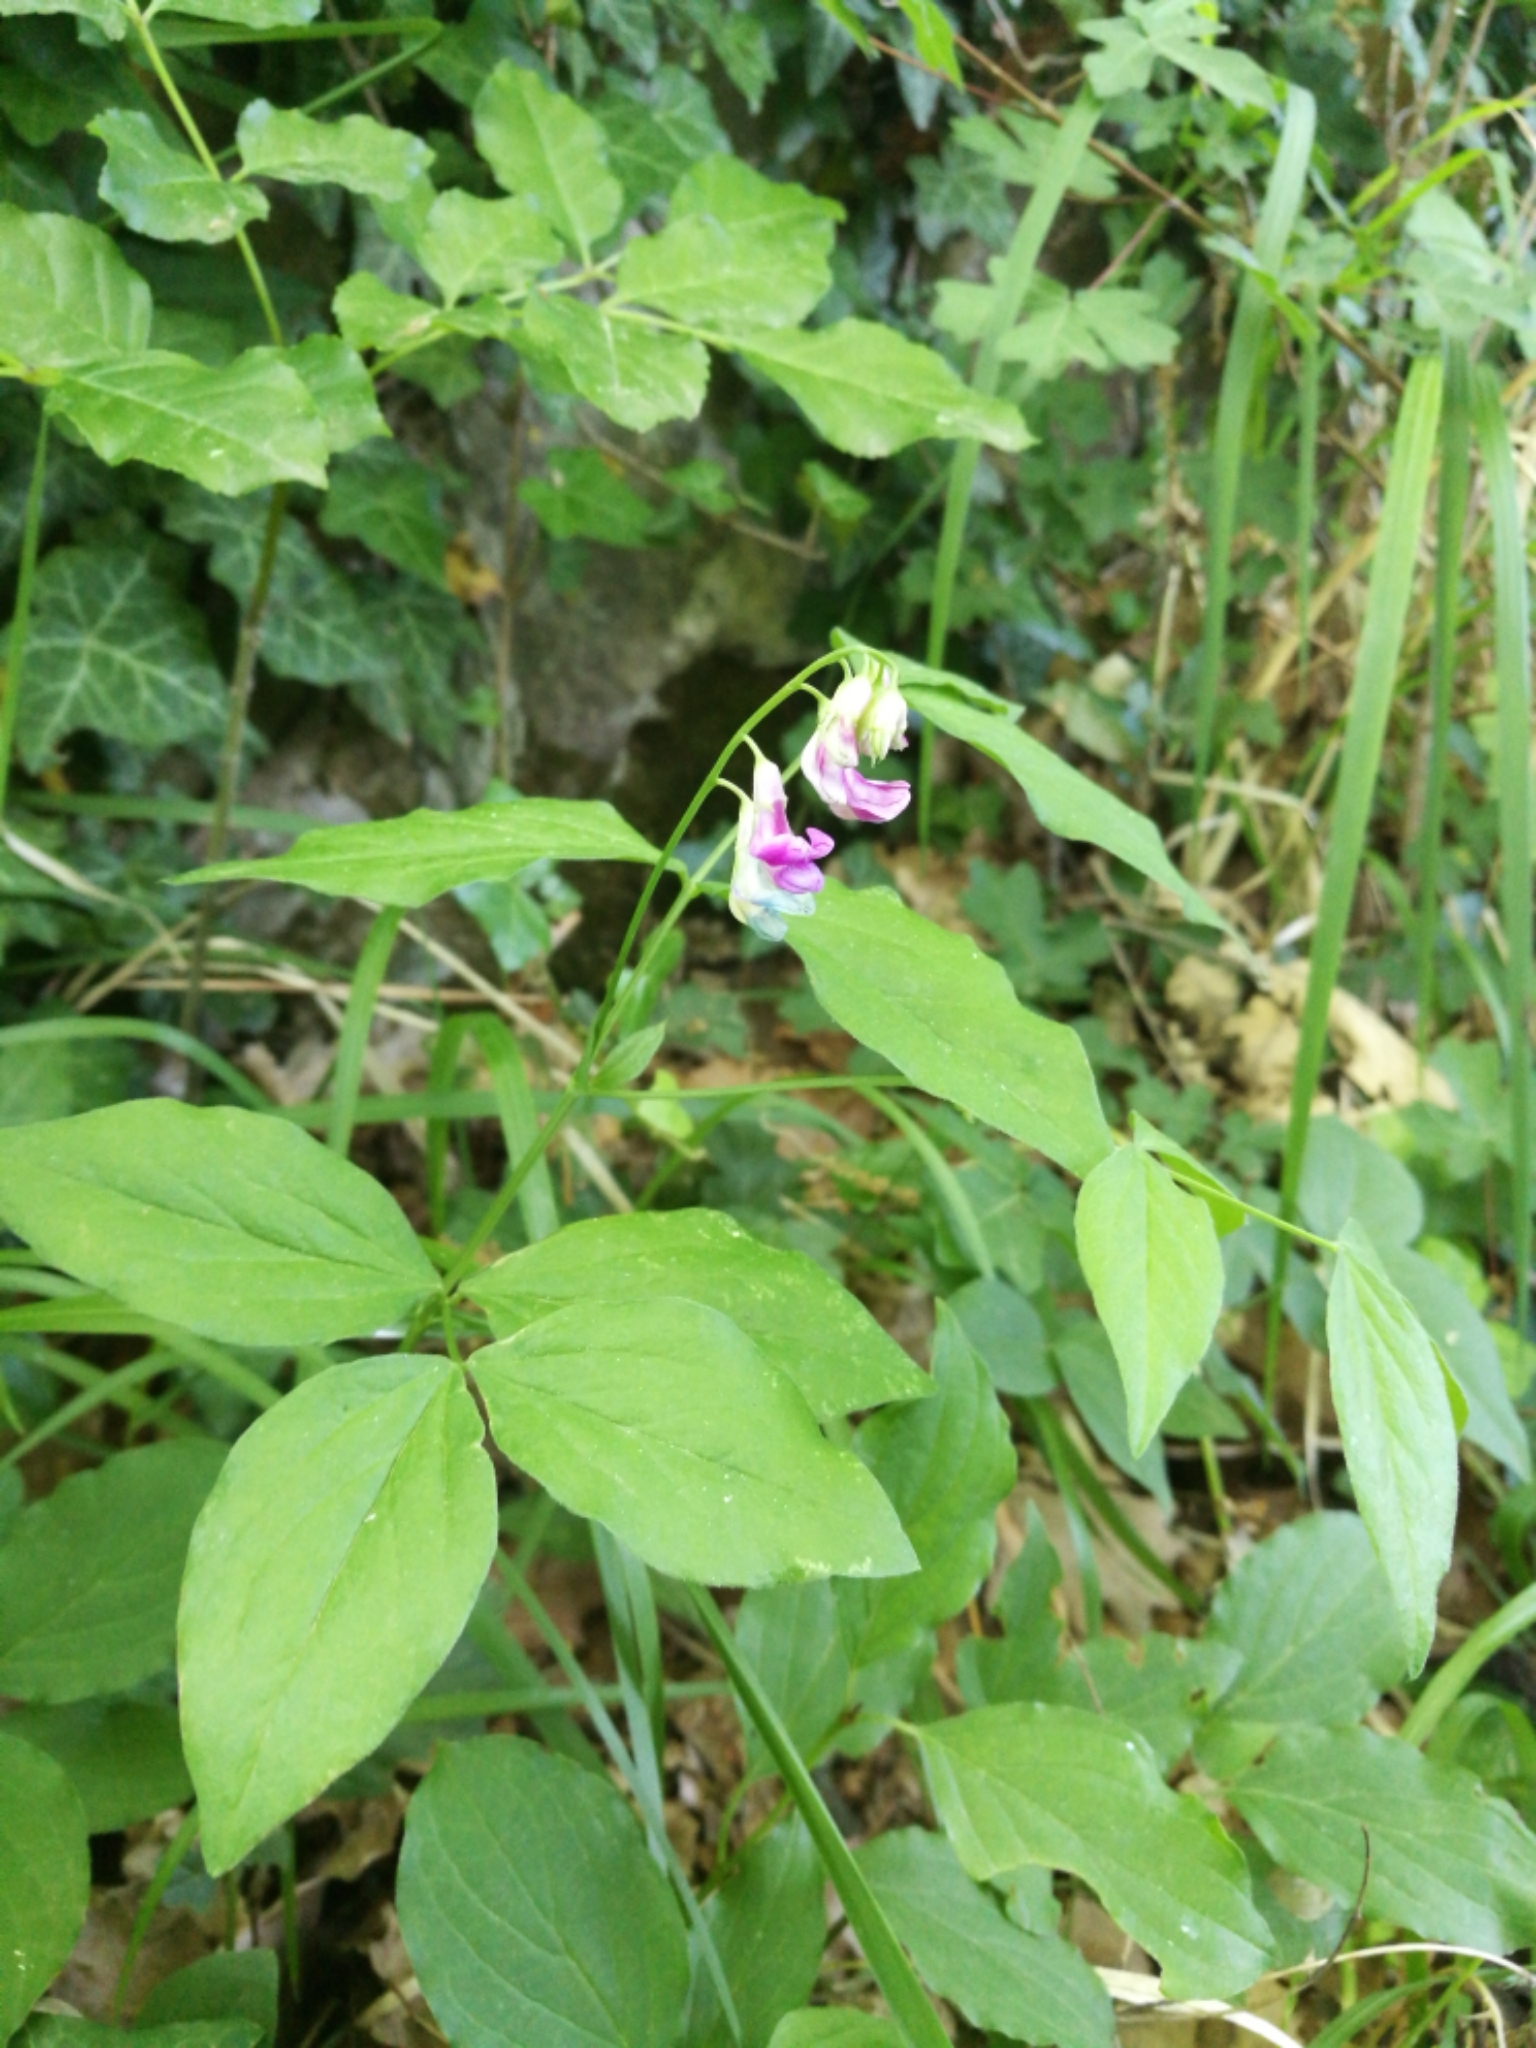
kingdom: Plantae
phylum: Tracheophyta
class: Magnoliopsida
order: Fabales
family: Fabaceae
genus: Lathyrus
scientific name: Lathyrus vernus
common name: Spring pea
